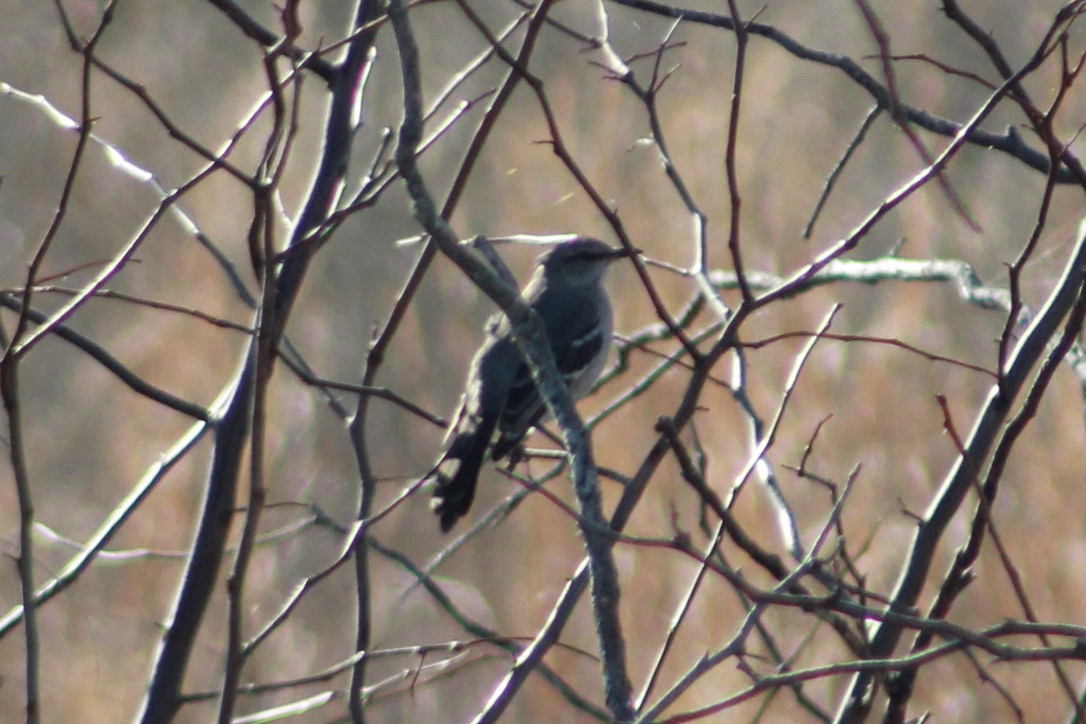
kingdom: Animalia
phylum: Chordata
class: Aves
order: Passeriformes
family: Mimidae
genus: Mimus
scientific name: Mimus polyglottos
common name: Northern mockingbird
